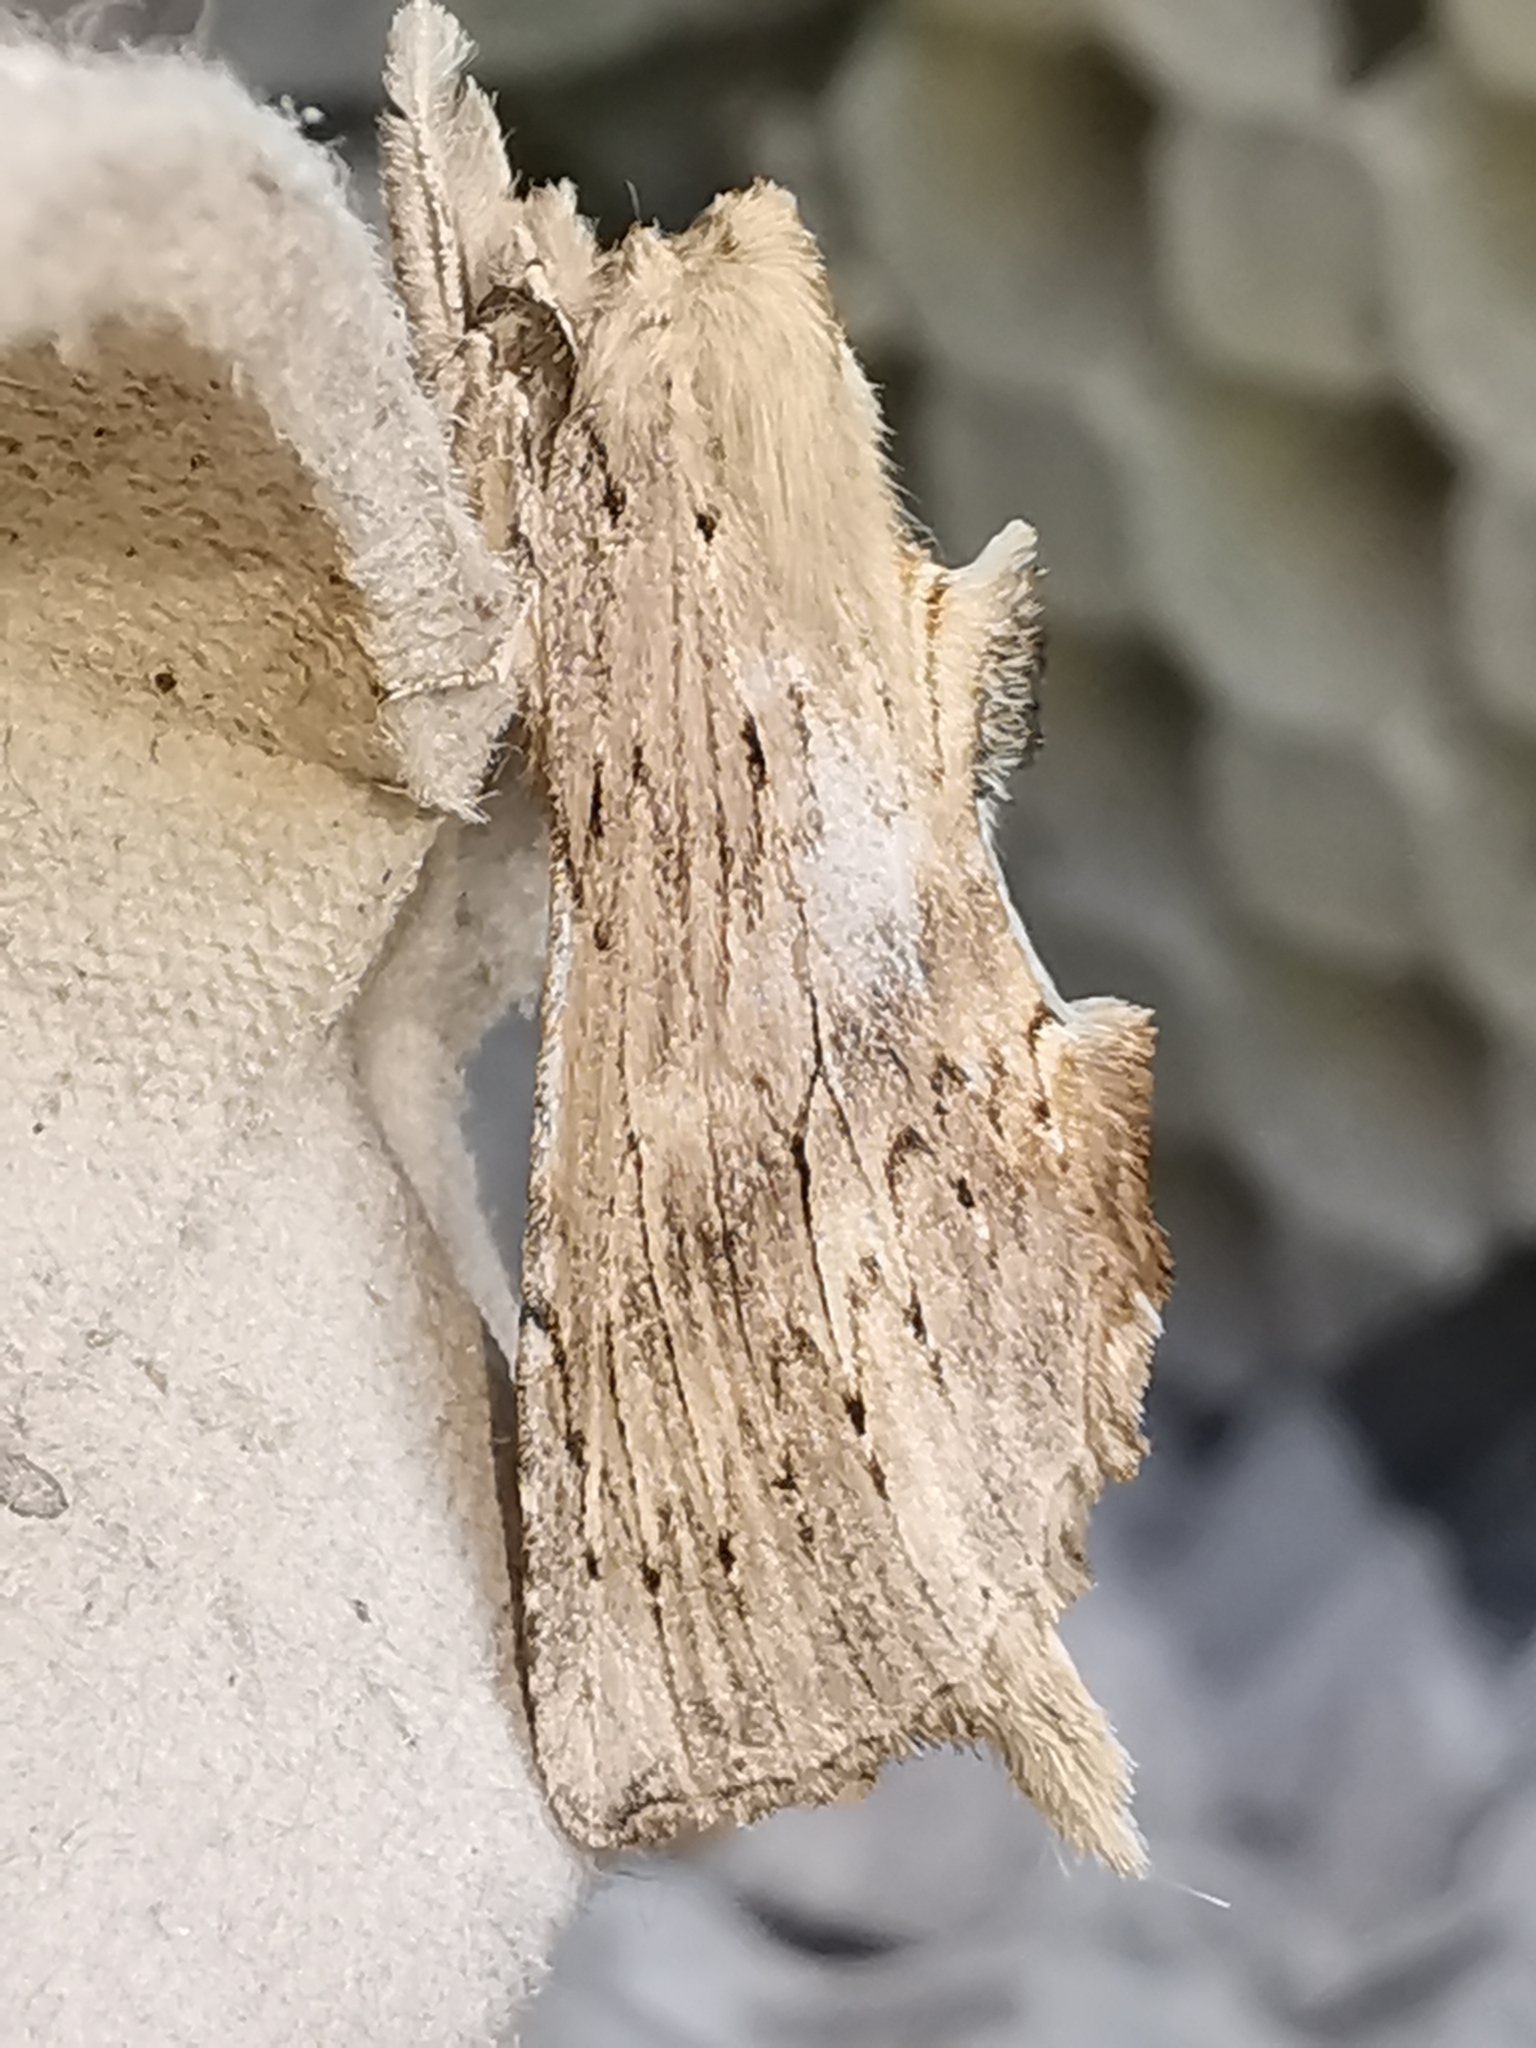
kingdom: Animalia
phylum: Arthropoda
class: Insecta
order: Lepidoptera
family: Notodontidae
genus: Pterostoma
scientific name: Pterostoma palpina
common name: Pale prominent
